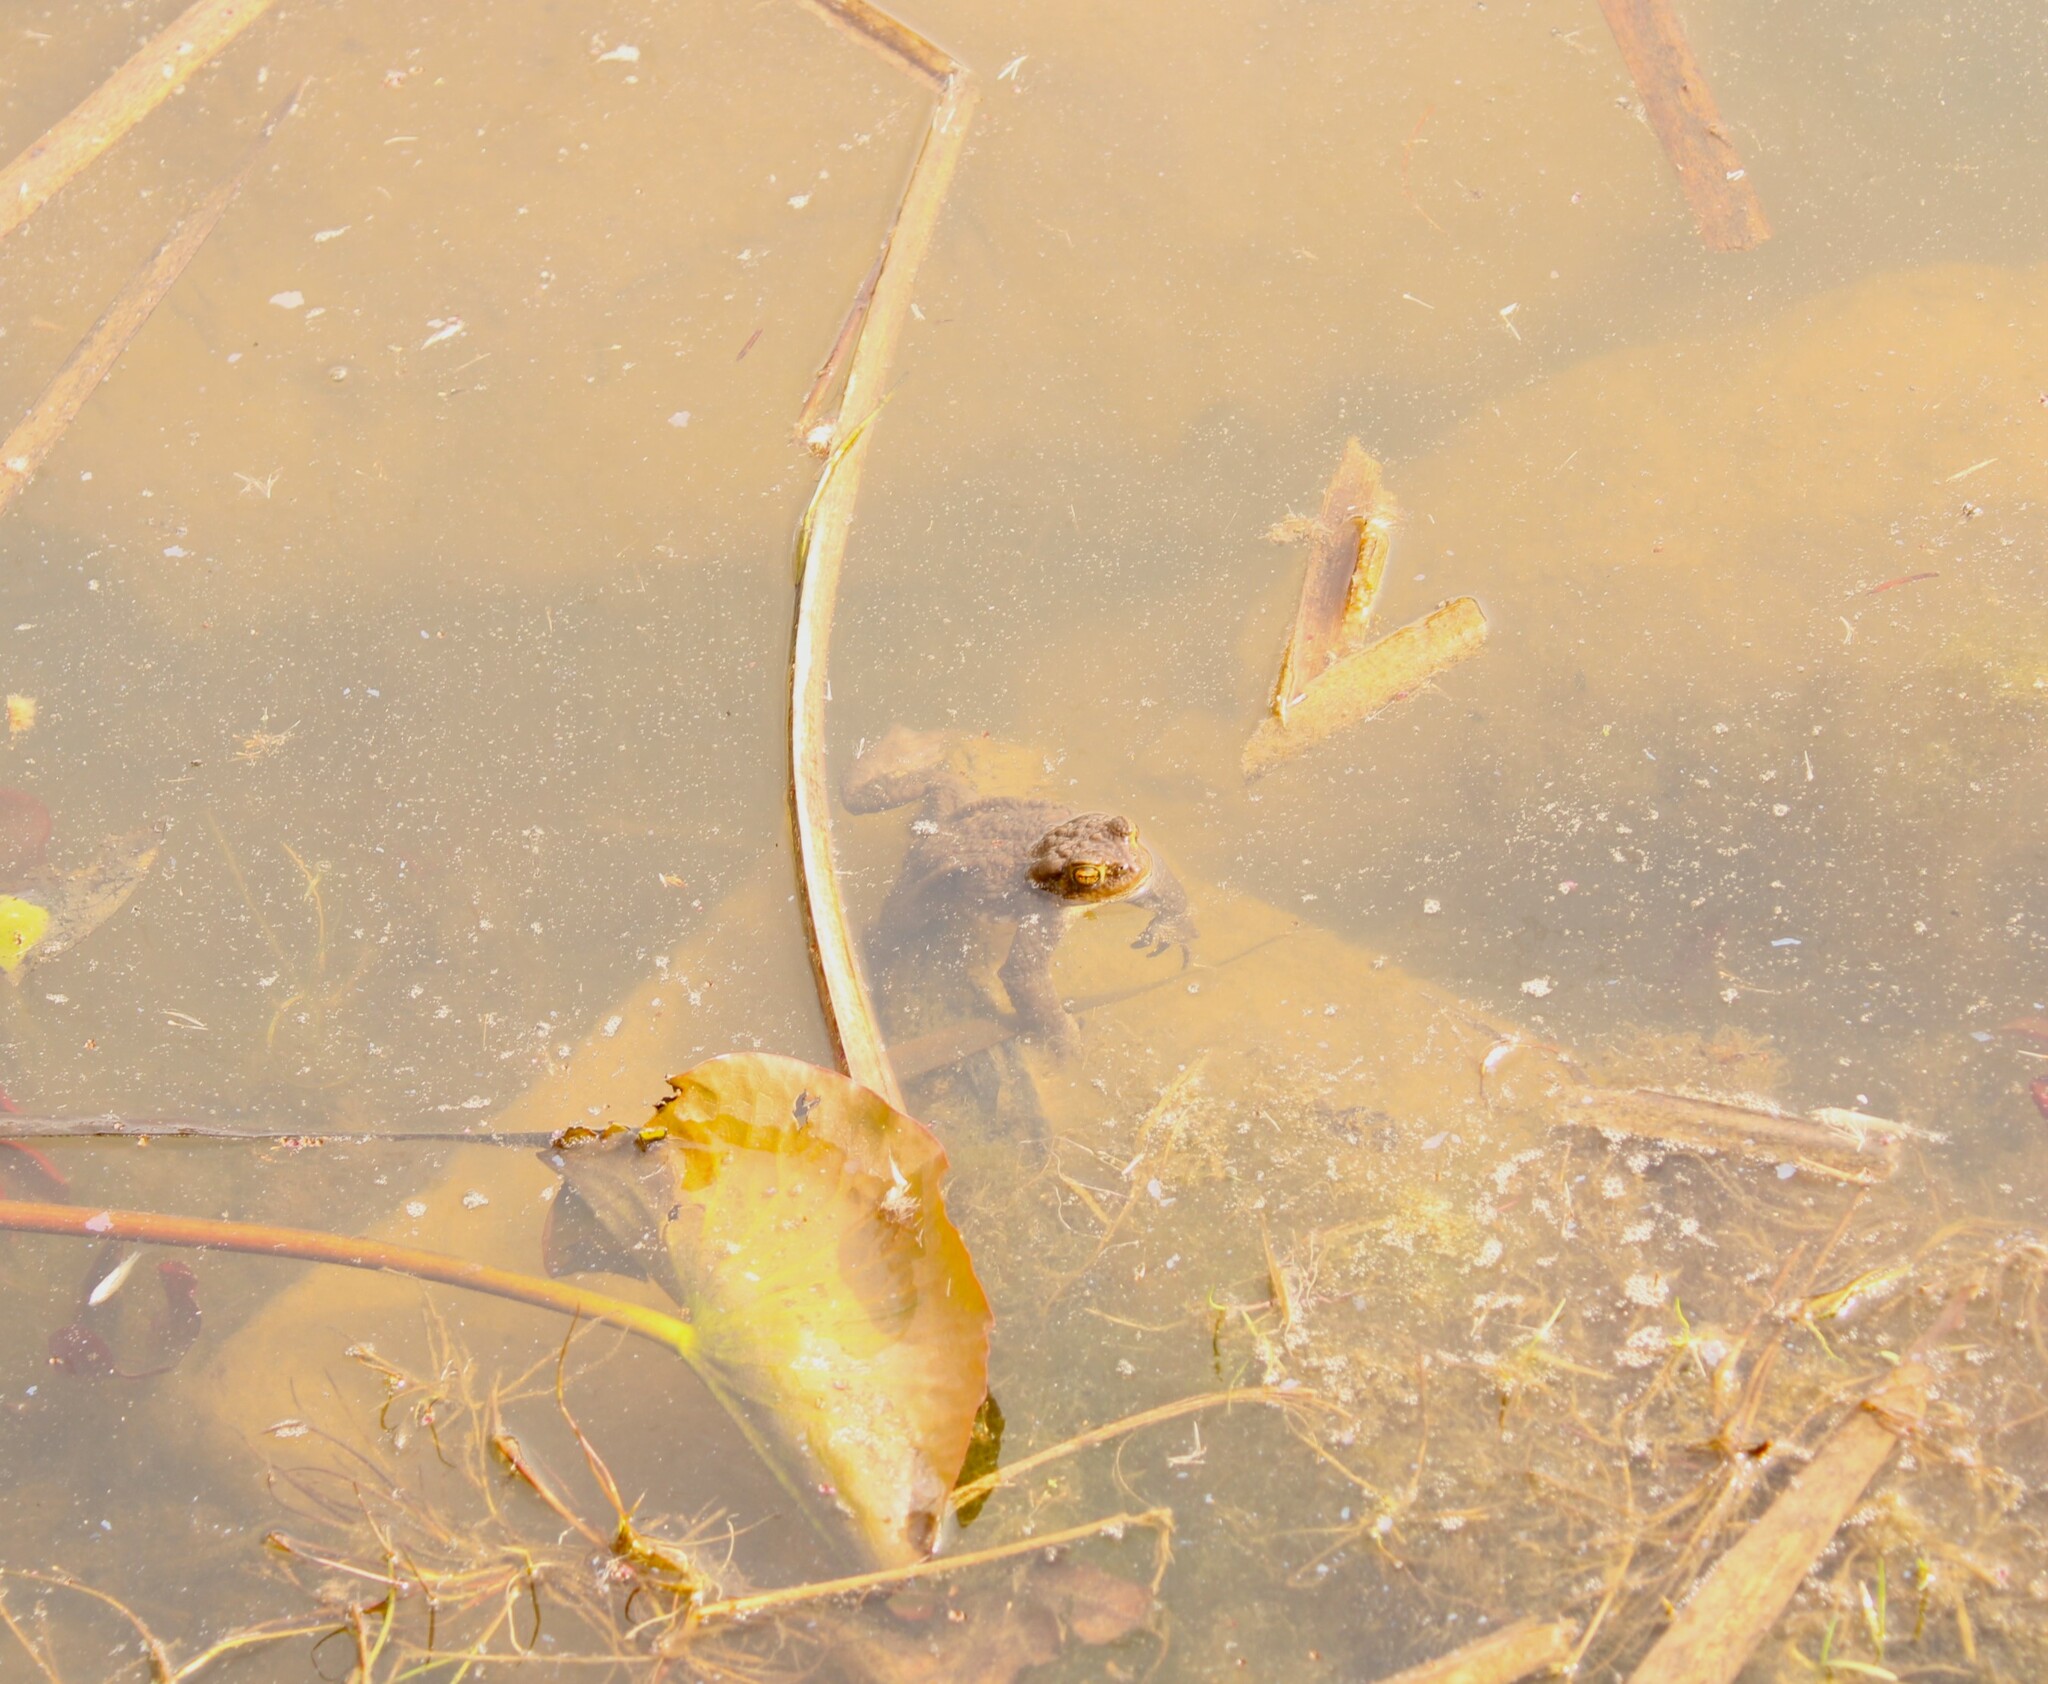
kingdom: Animalia
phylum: Chordata
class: Amphibia
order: Anura
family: Bufonidae
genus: Bufo
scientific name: Bufo bufo
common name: Common toad
